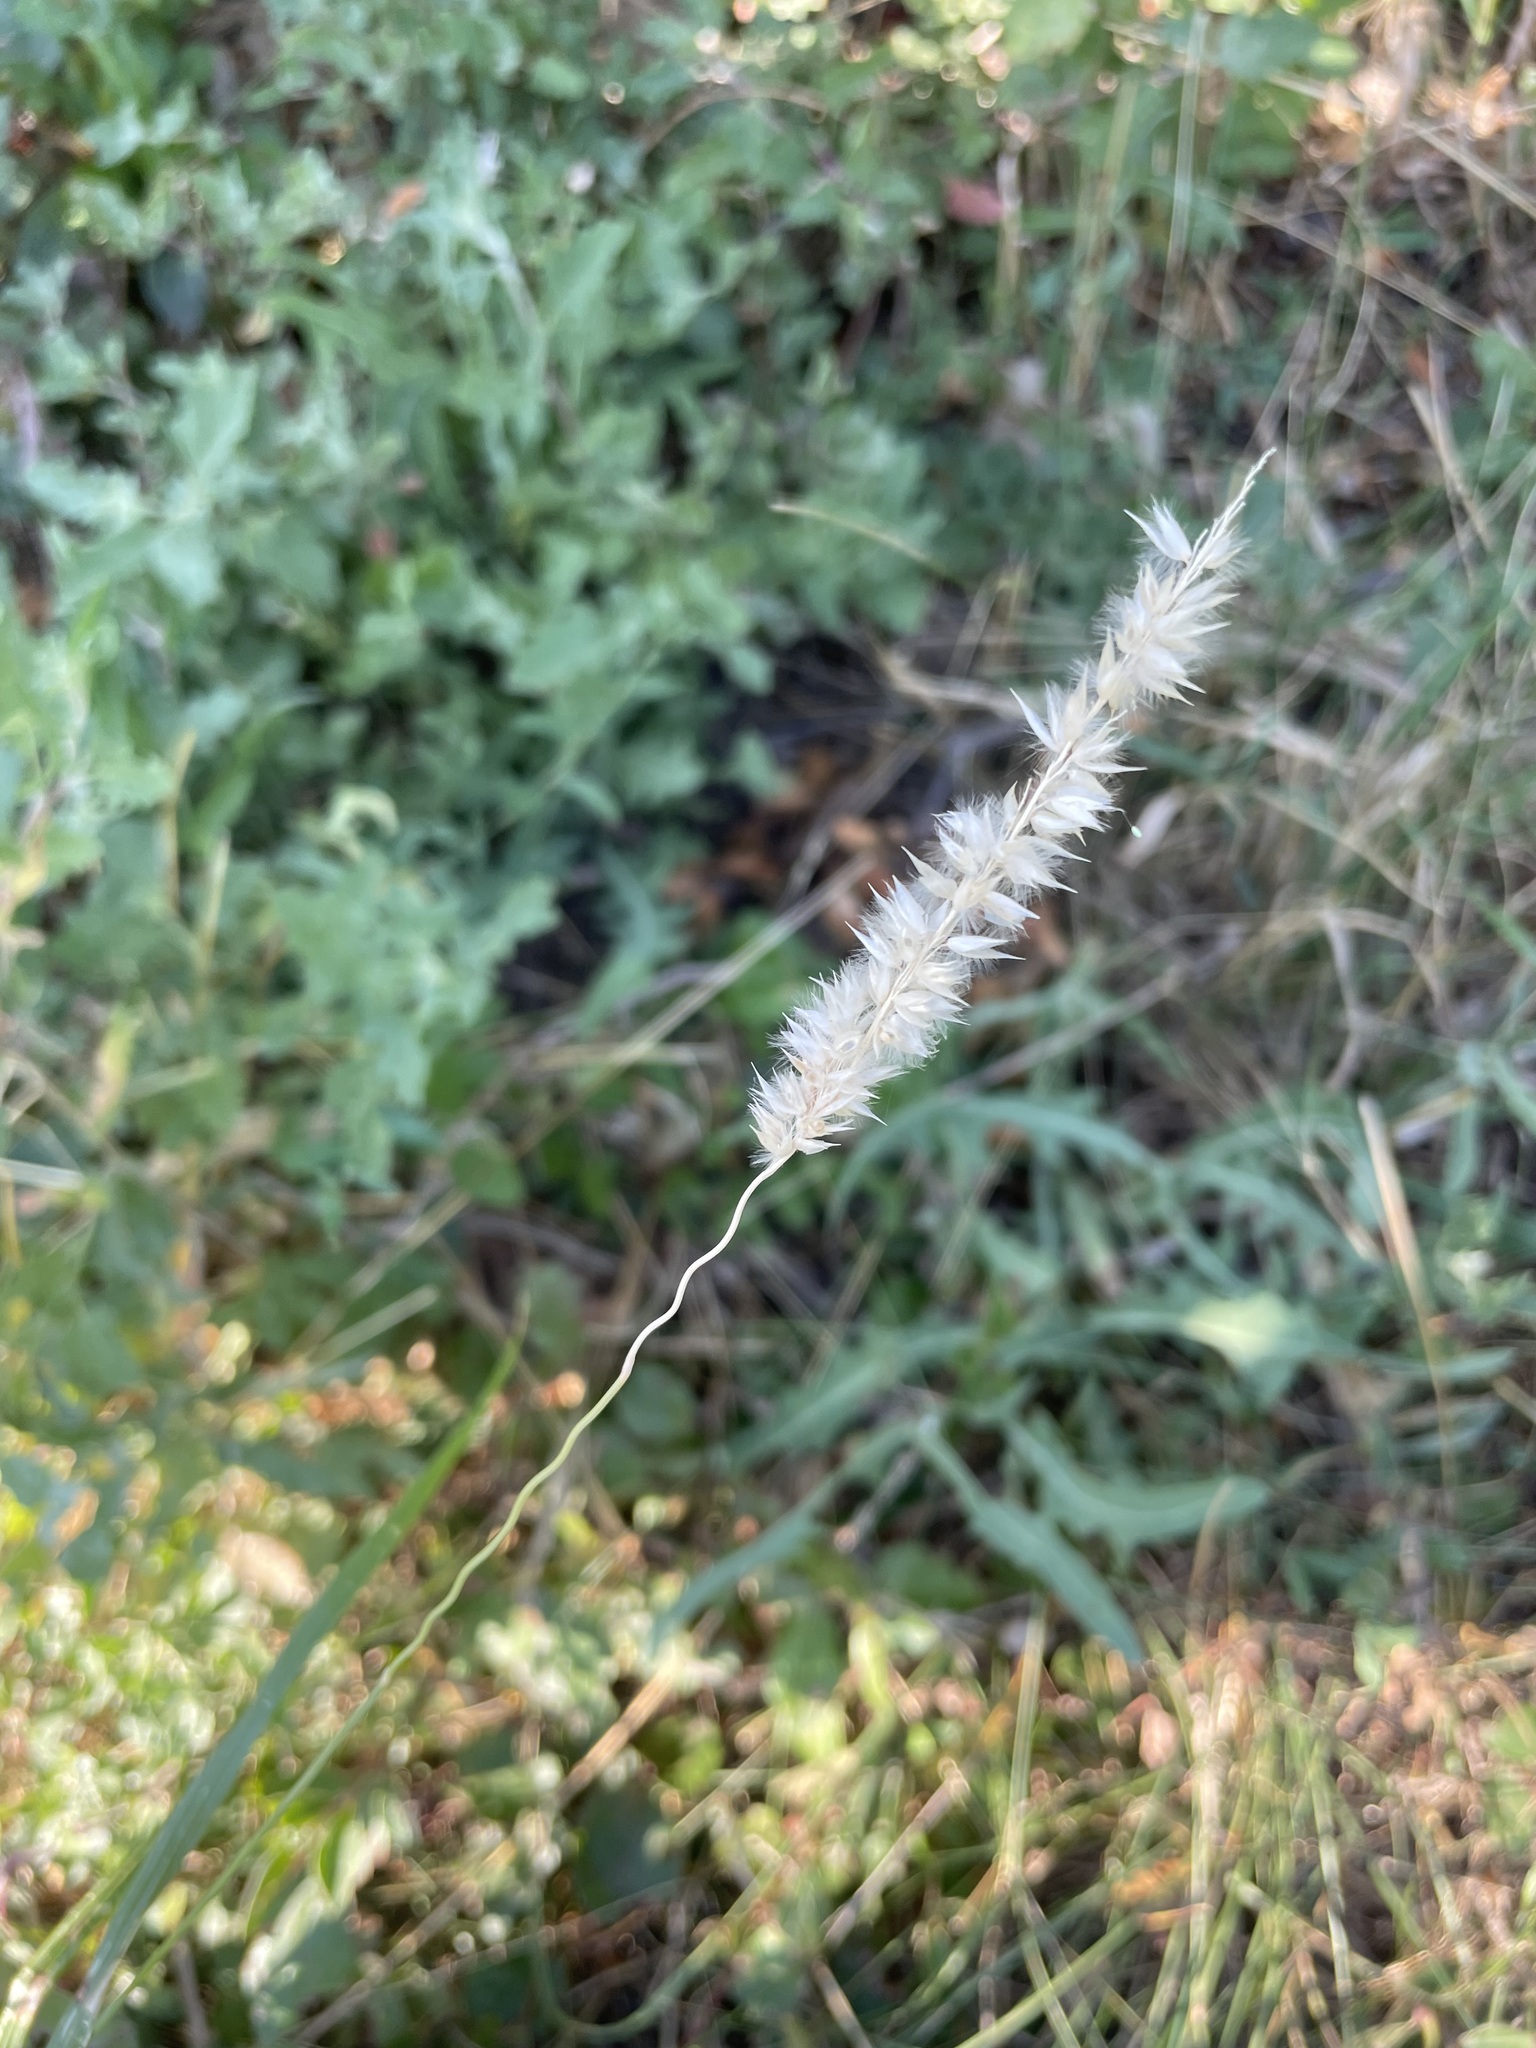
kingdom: Plantae
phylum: Tracheophyta
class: Liliopsida
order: Poales
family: Poaceae
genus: Melica
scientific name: Melica transsilvanica
